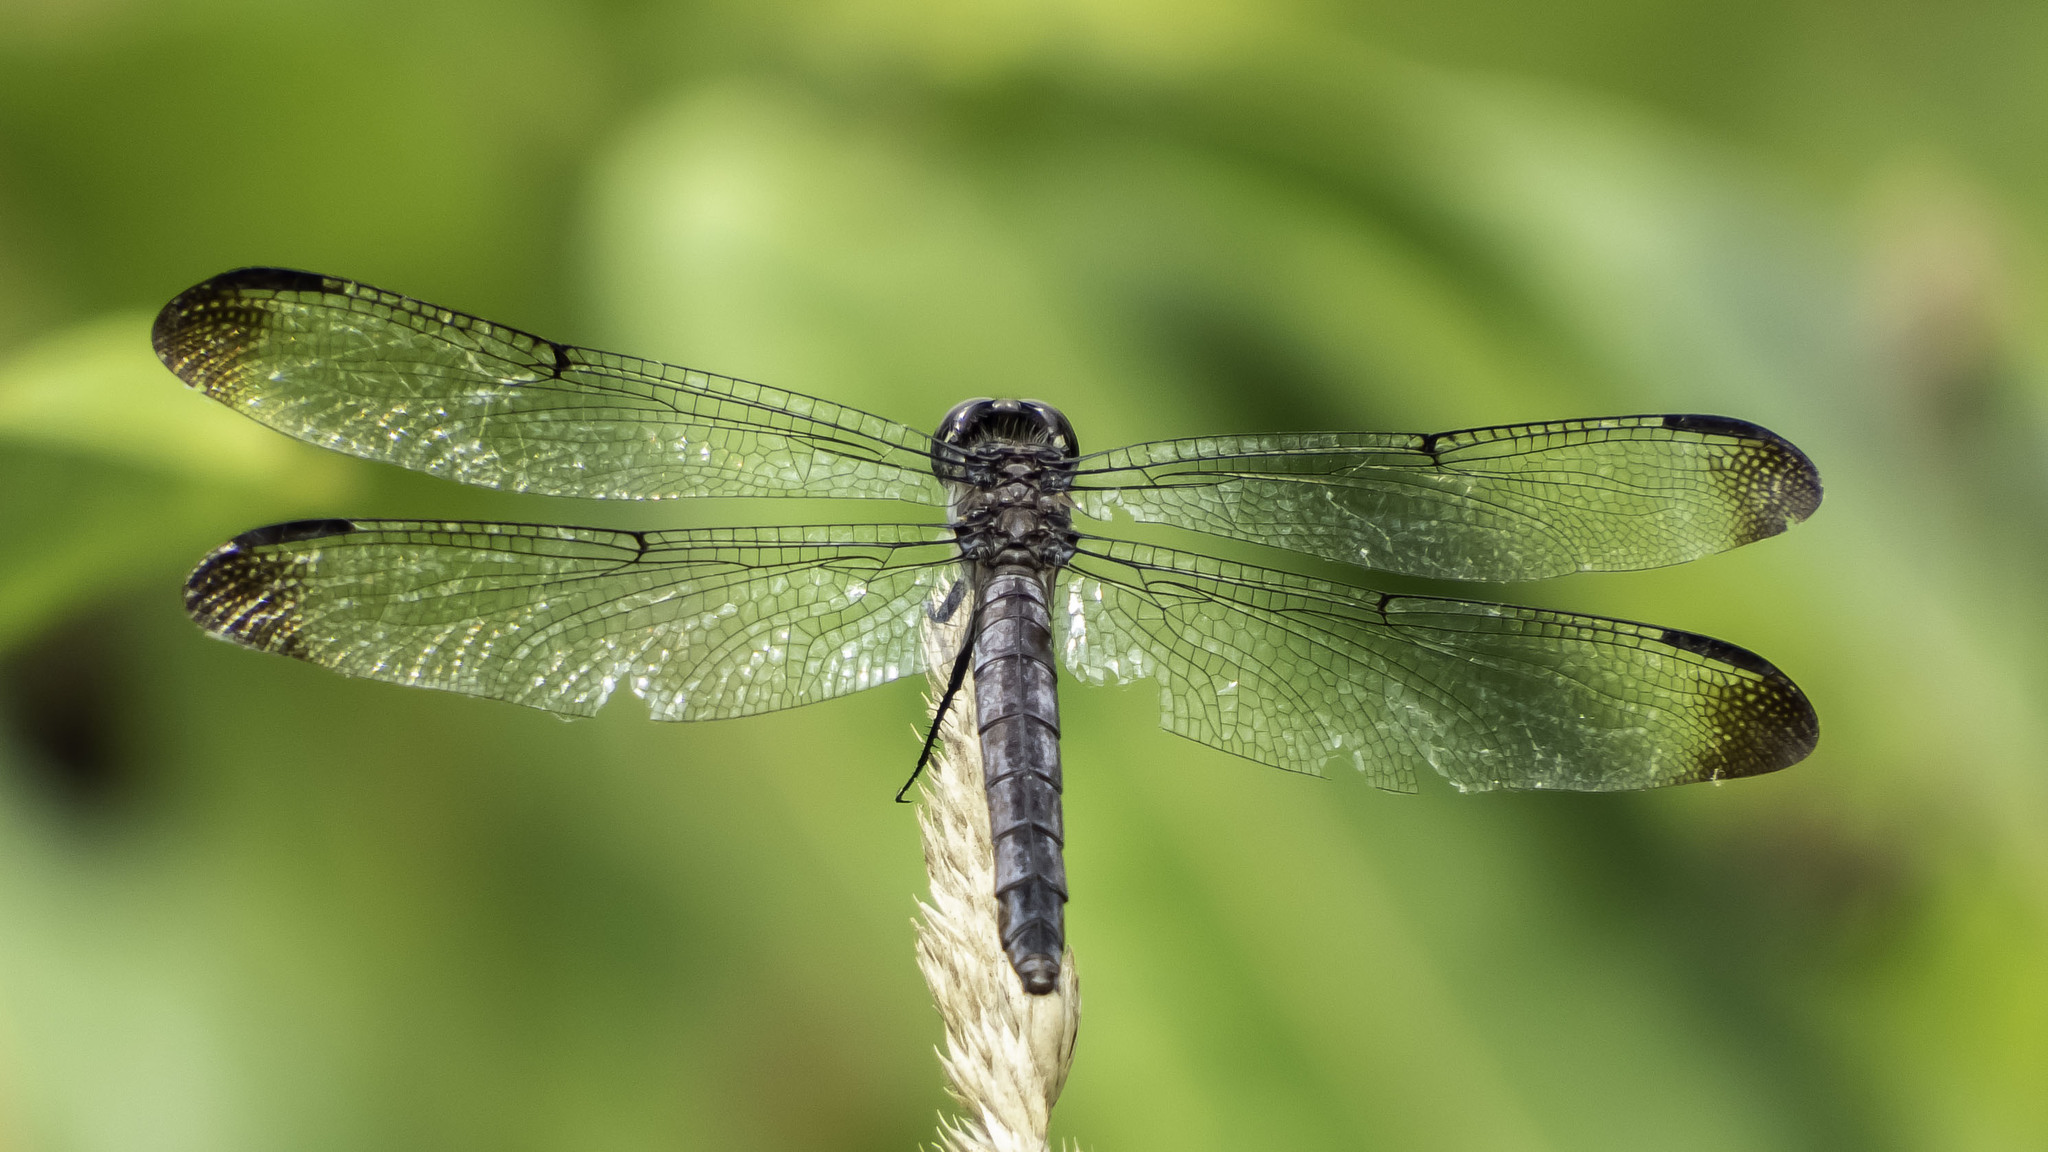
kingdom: Animalia
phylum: Arthropoda
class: Insecta
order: Odonata
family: Libellulidae
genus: Libellula
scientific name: Libellula incesta
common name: Slaty skimmer
